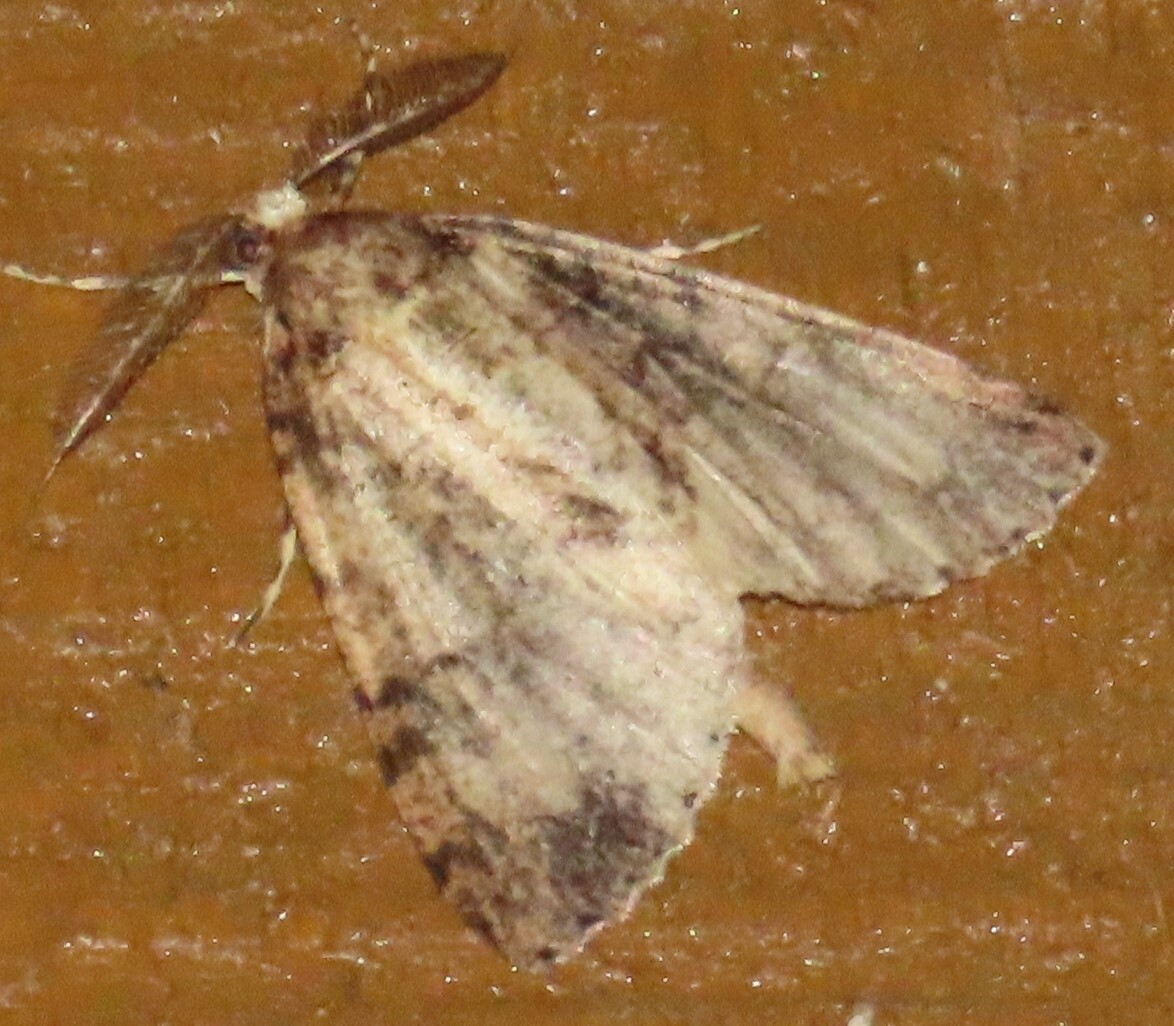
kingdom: Animalia
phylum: Arthropoda
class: Insecta
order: Lepidoptera
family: Geometridae
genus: Pseudocoremia
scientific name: Pseudocoremia suavis
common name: Common forest looper
